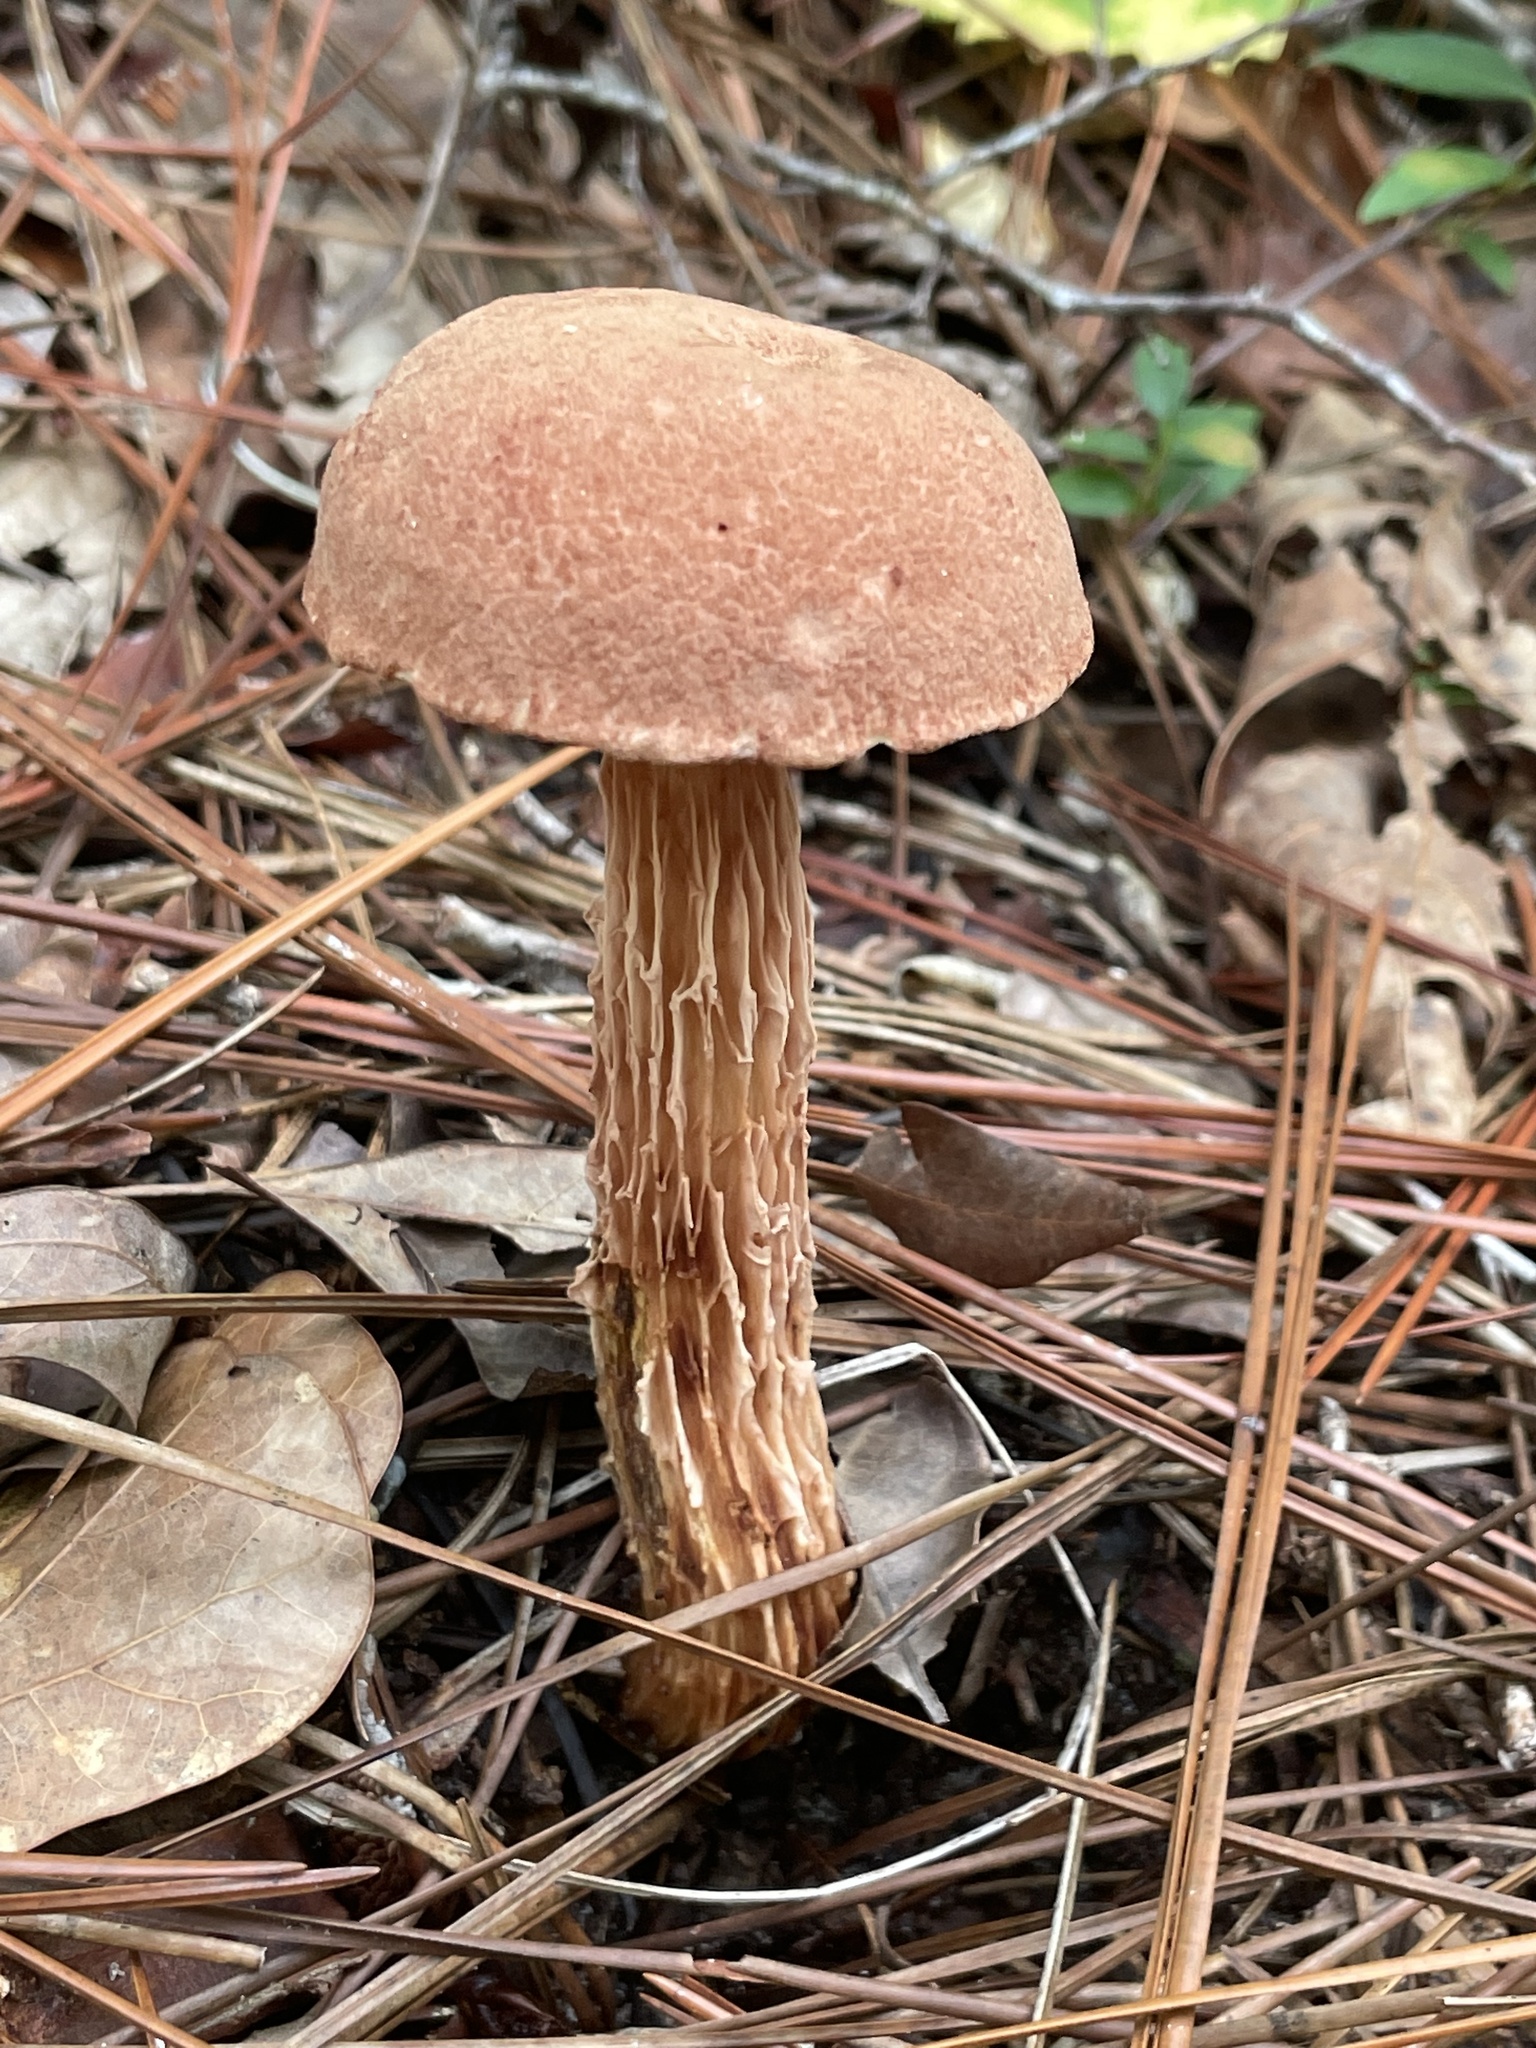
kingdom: Fungi
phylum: Basidiomycota
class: Agaricomycetes
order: Boletales
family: Boletaceae
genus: Aureoboletus
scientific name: Aureoboletus russellii
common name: Russell's bolete
